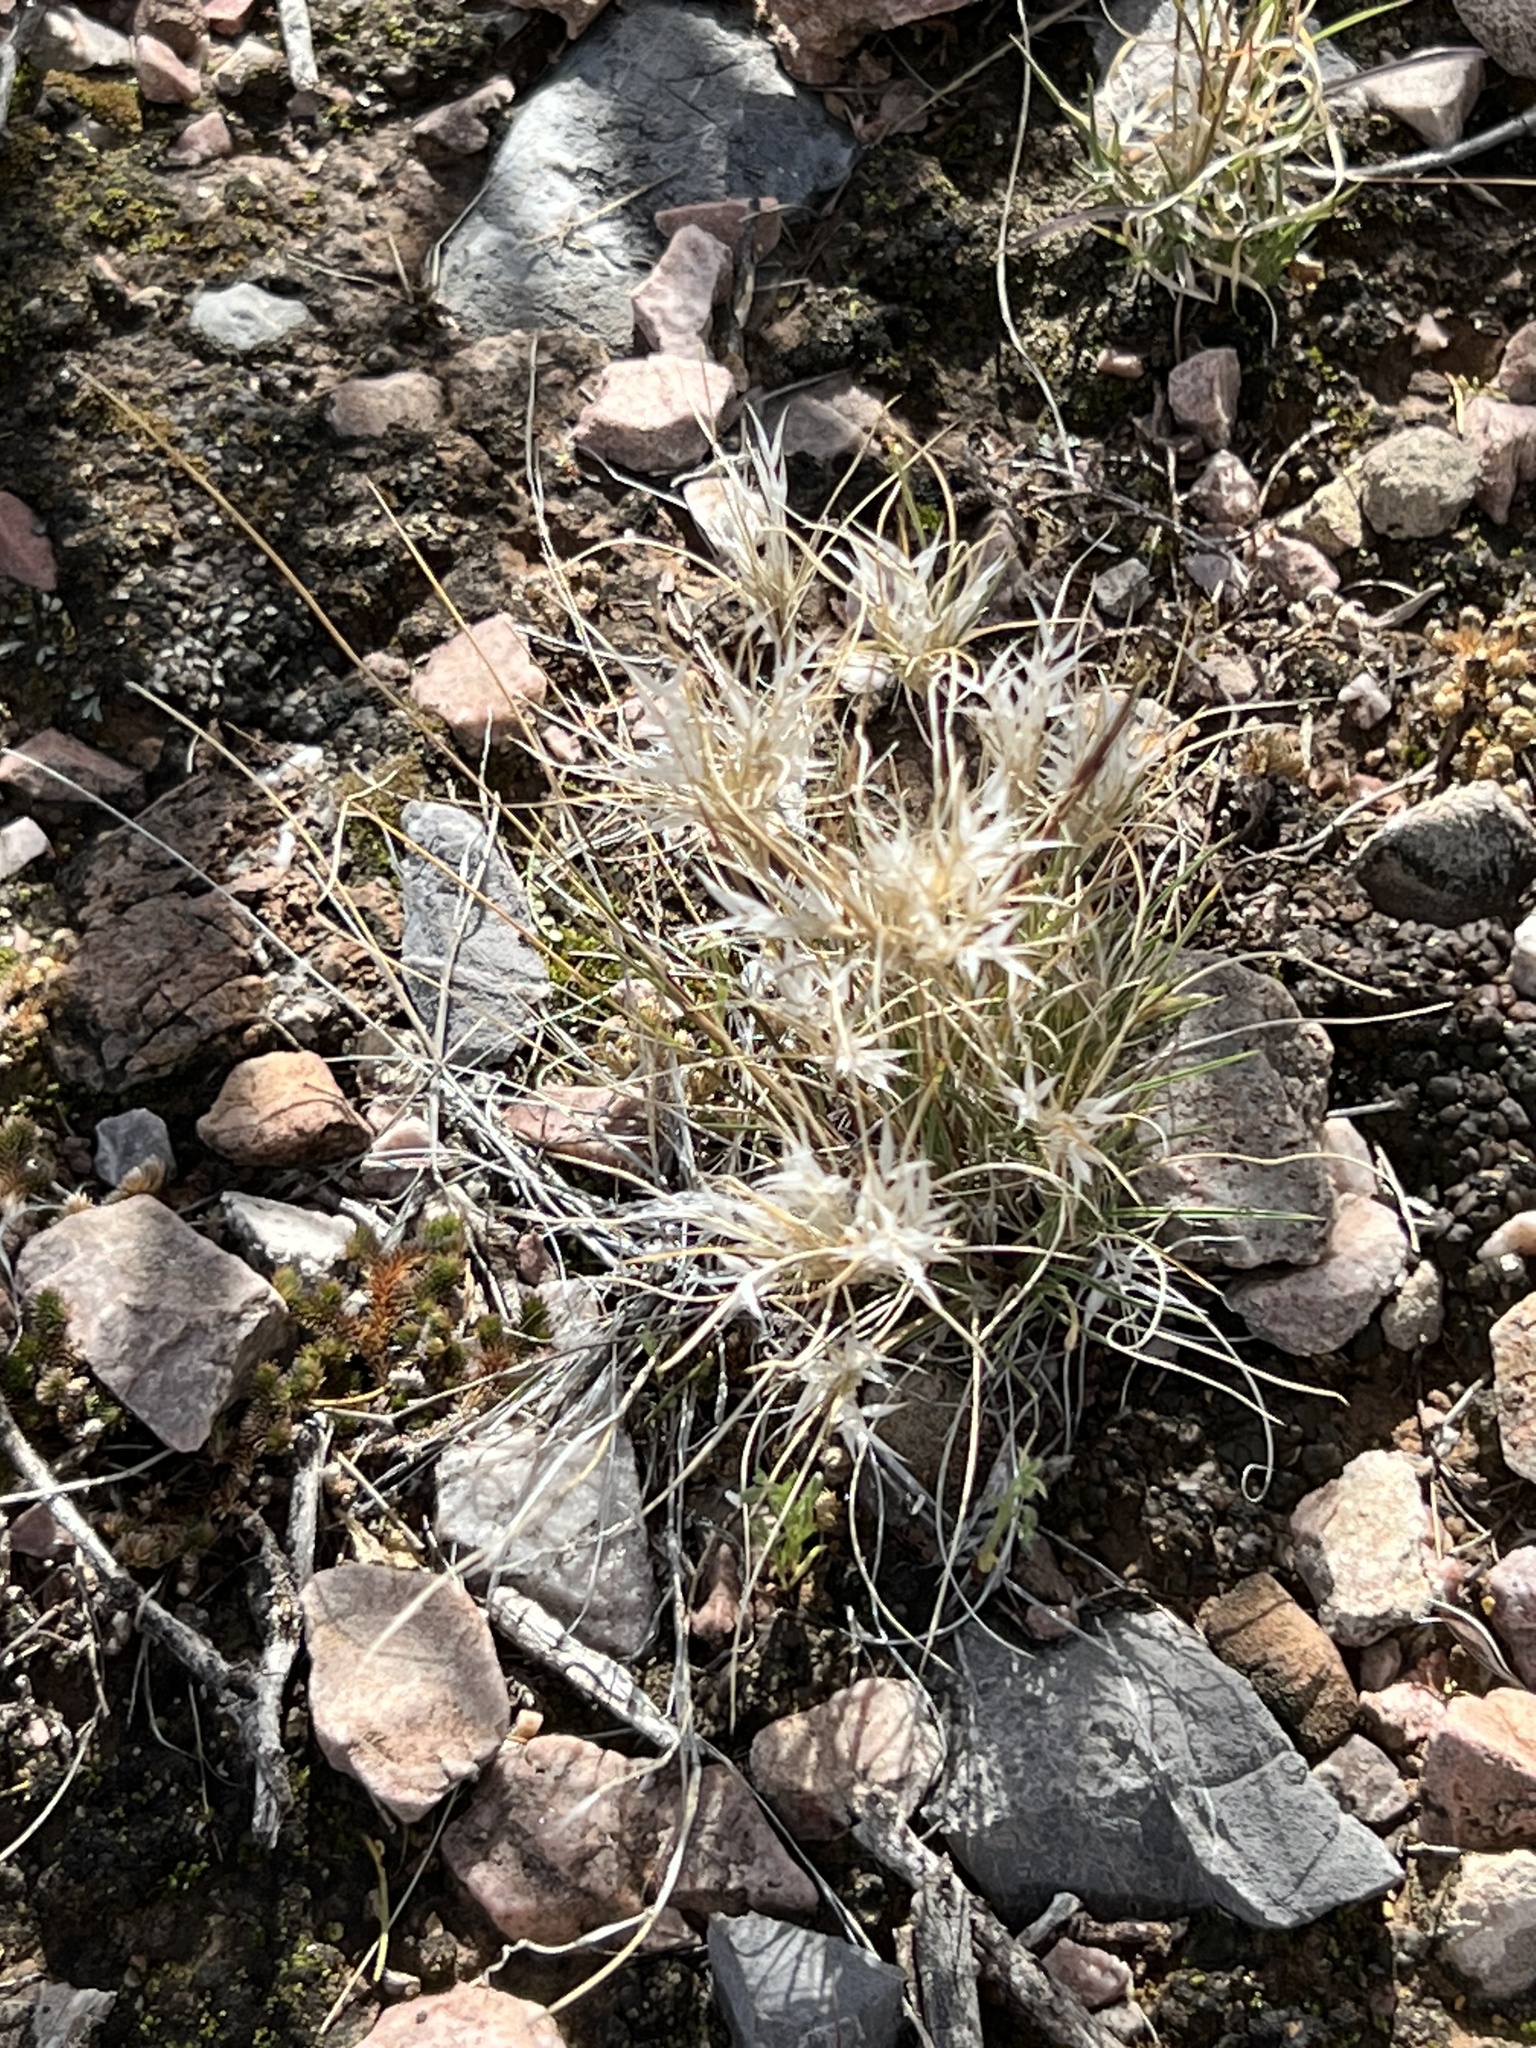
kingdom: Plantae
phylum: Tracheophyta
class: Liliopsida
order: Poales
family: Poaceae
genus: Dasyochloa
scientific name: Dasyochloa pulchella
